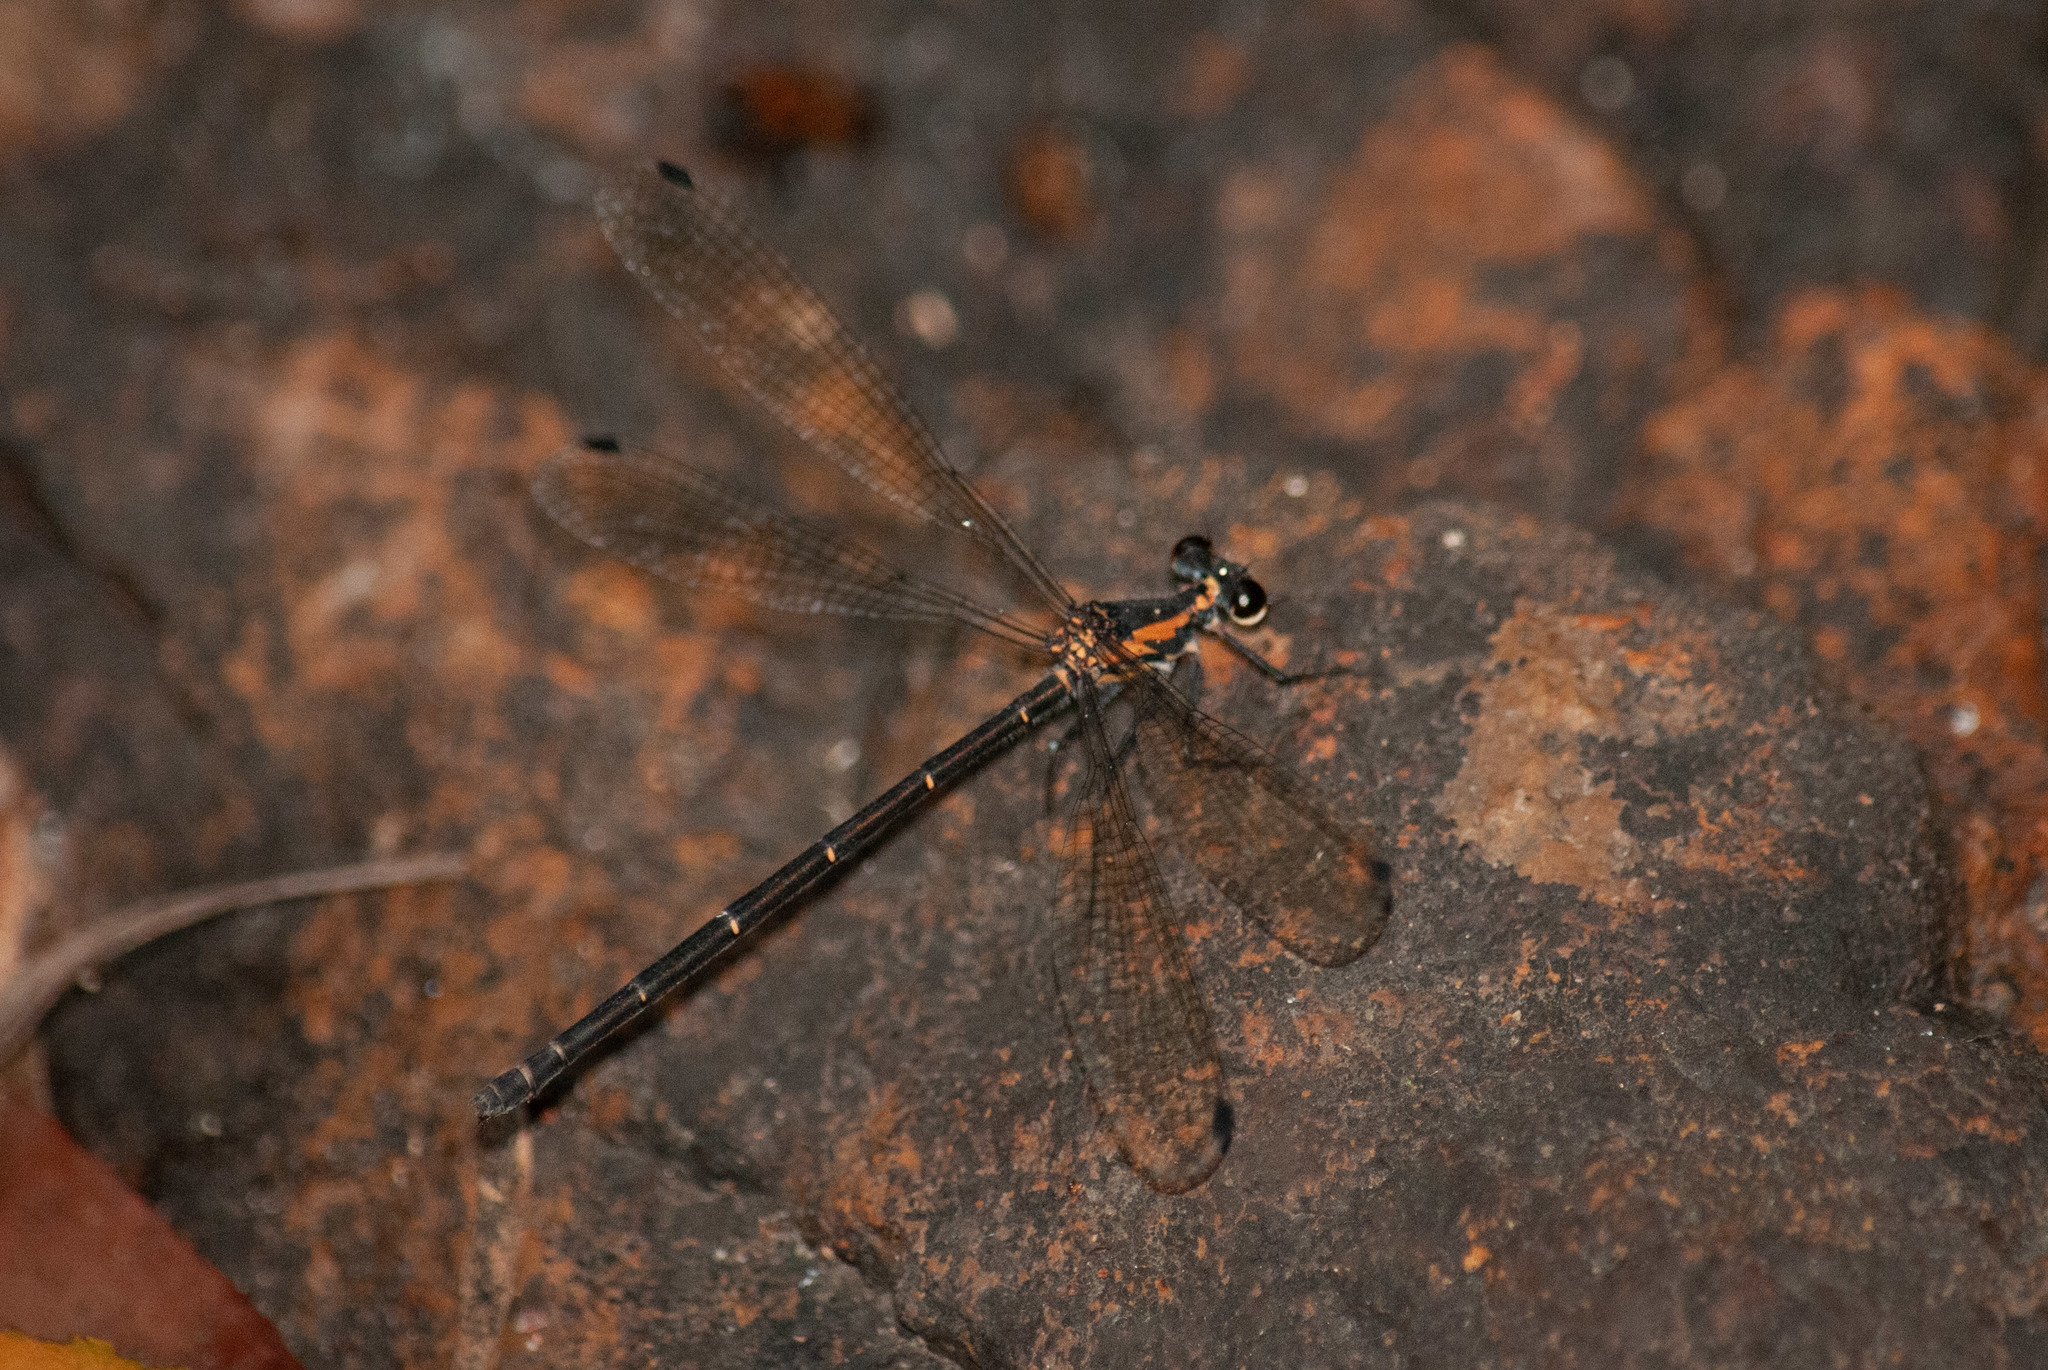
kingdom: Animalia
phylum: Arthropoda
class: Insecta
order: Odonata
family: Argiolestidae
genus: Austroargiolestes
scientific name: Austroargiolestes icteromelas
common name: Common flatwing
